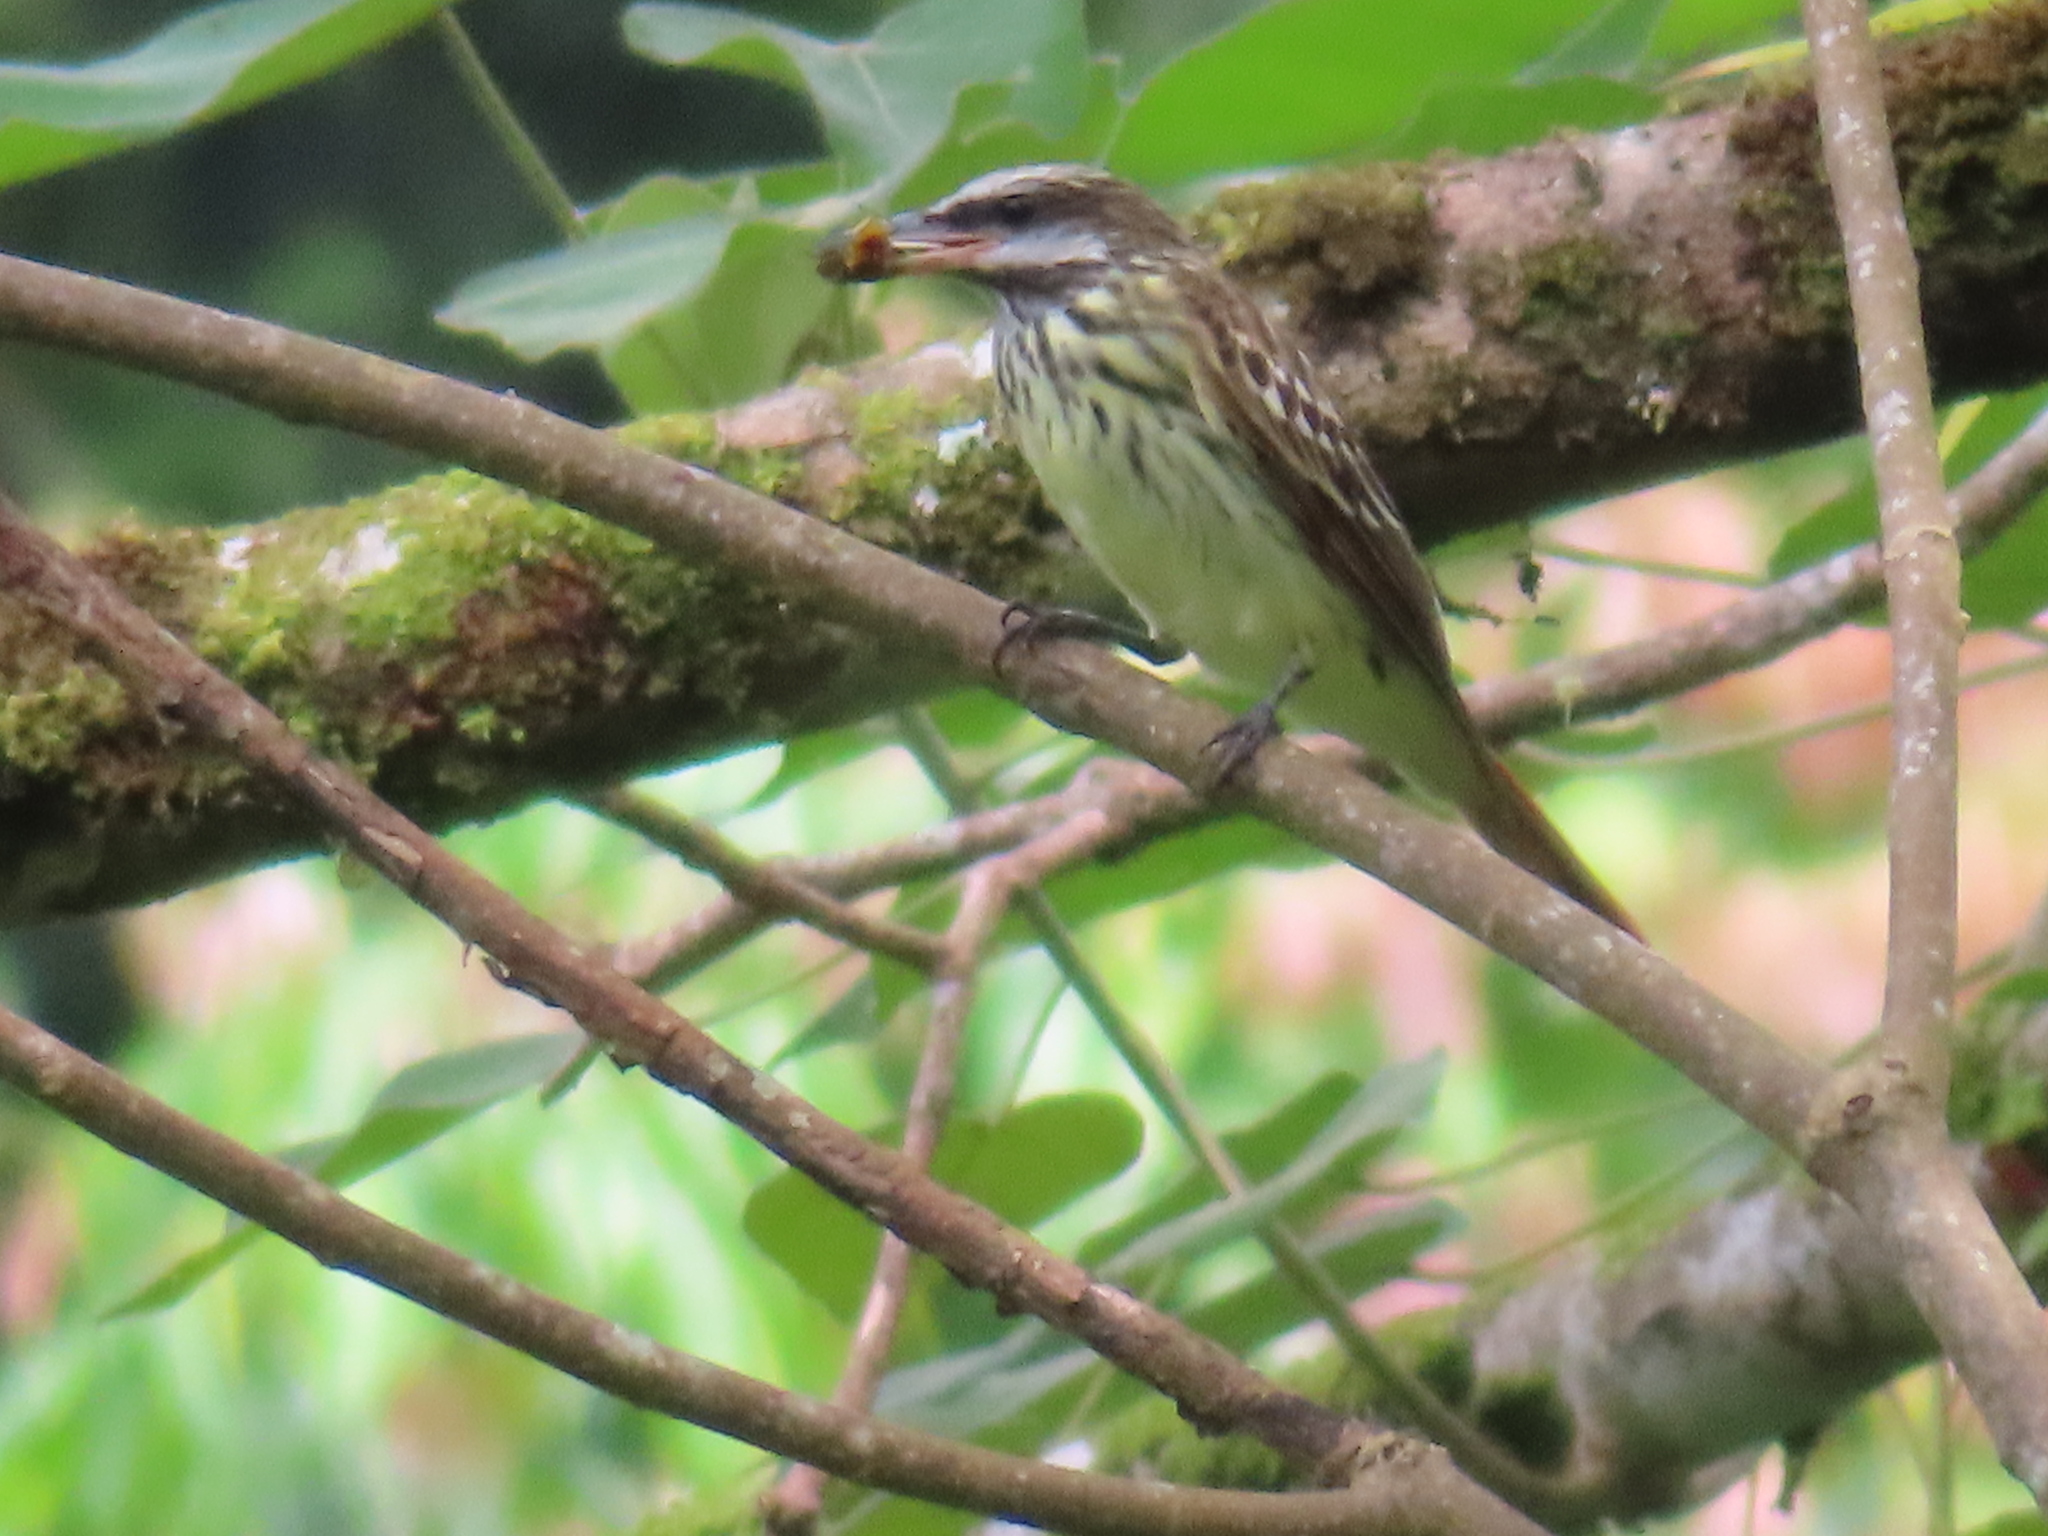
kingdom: Animalia
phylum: Chordata
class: Aves
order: Passeriformes
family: Tyrannidae
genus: Myiodynastes
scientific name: Myiodynastes luteiventris
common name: Sulphur-bellied flycatcher
